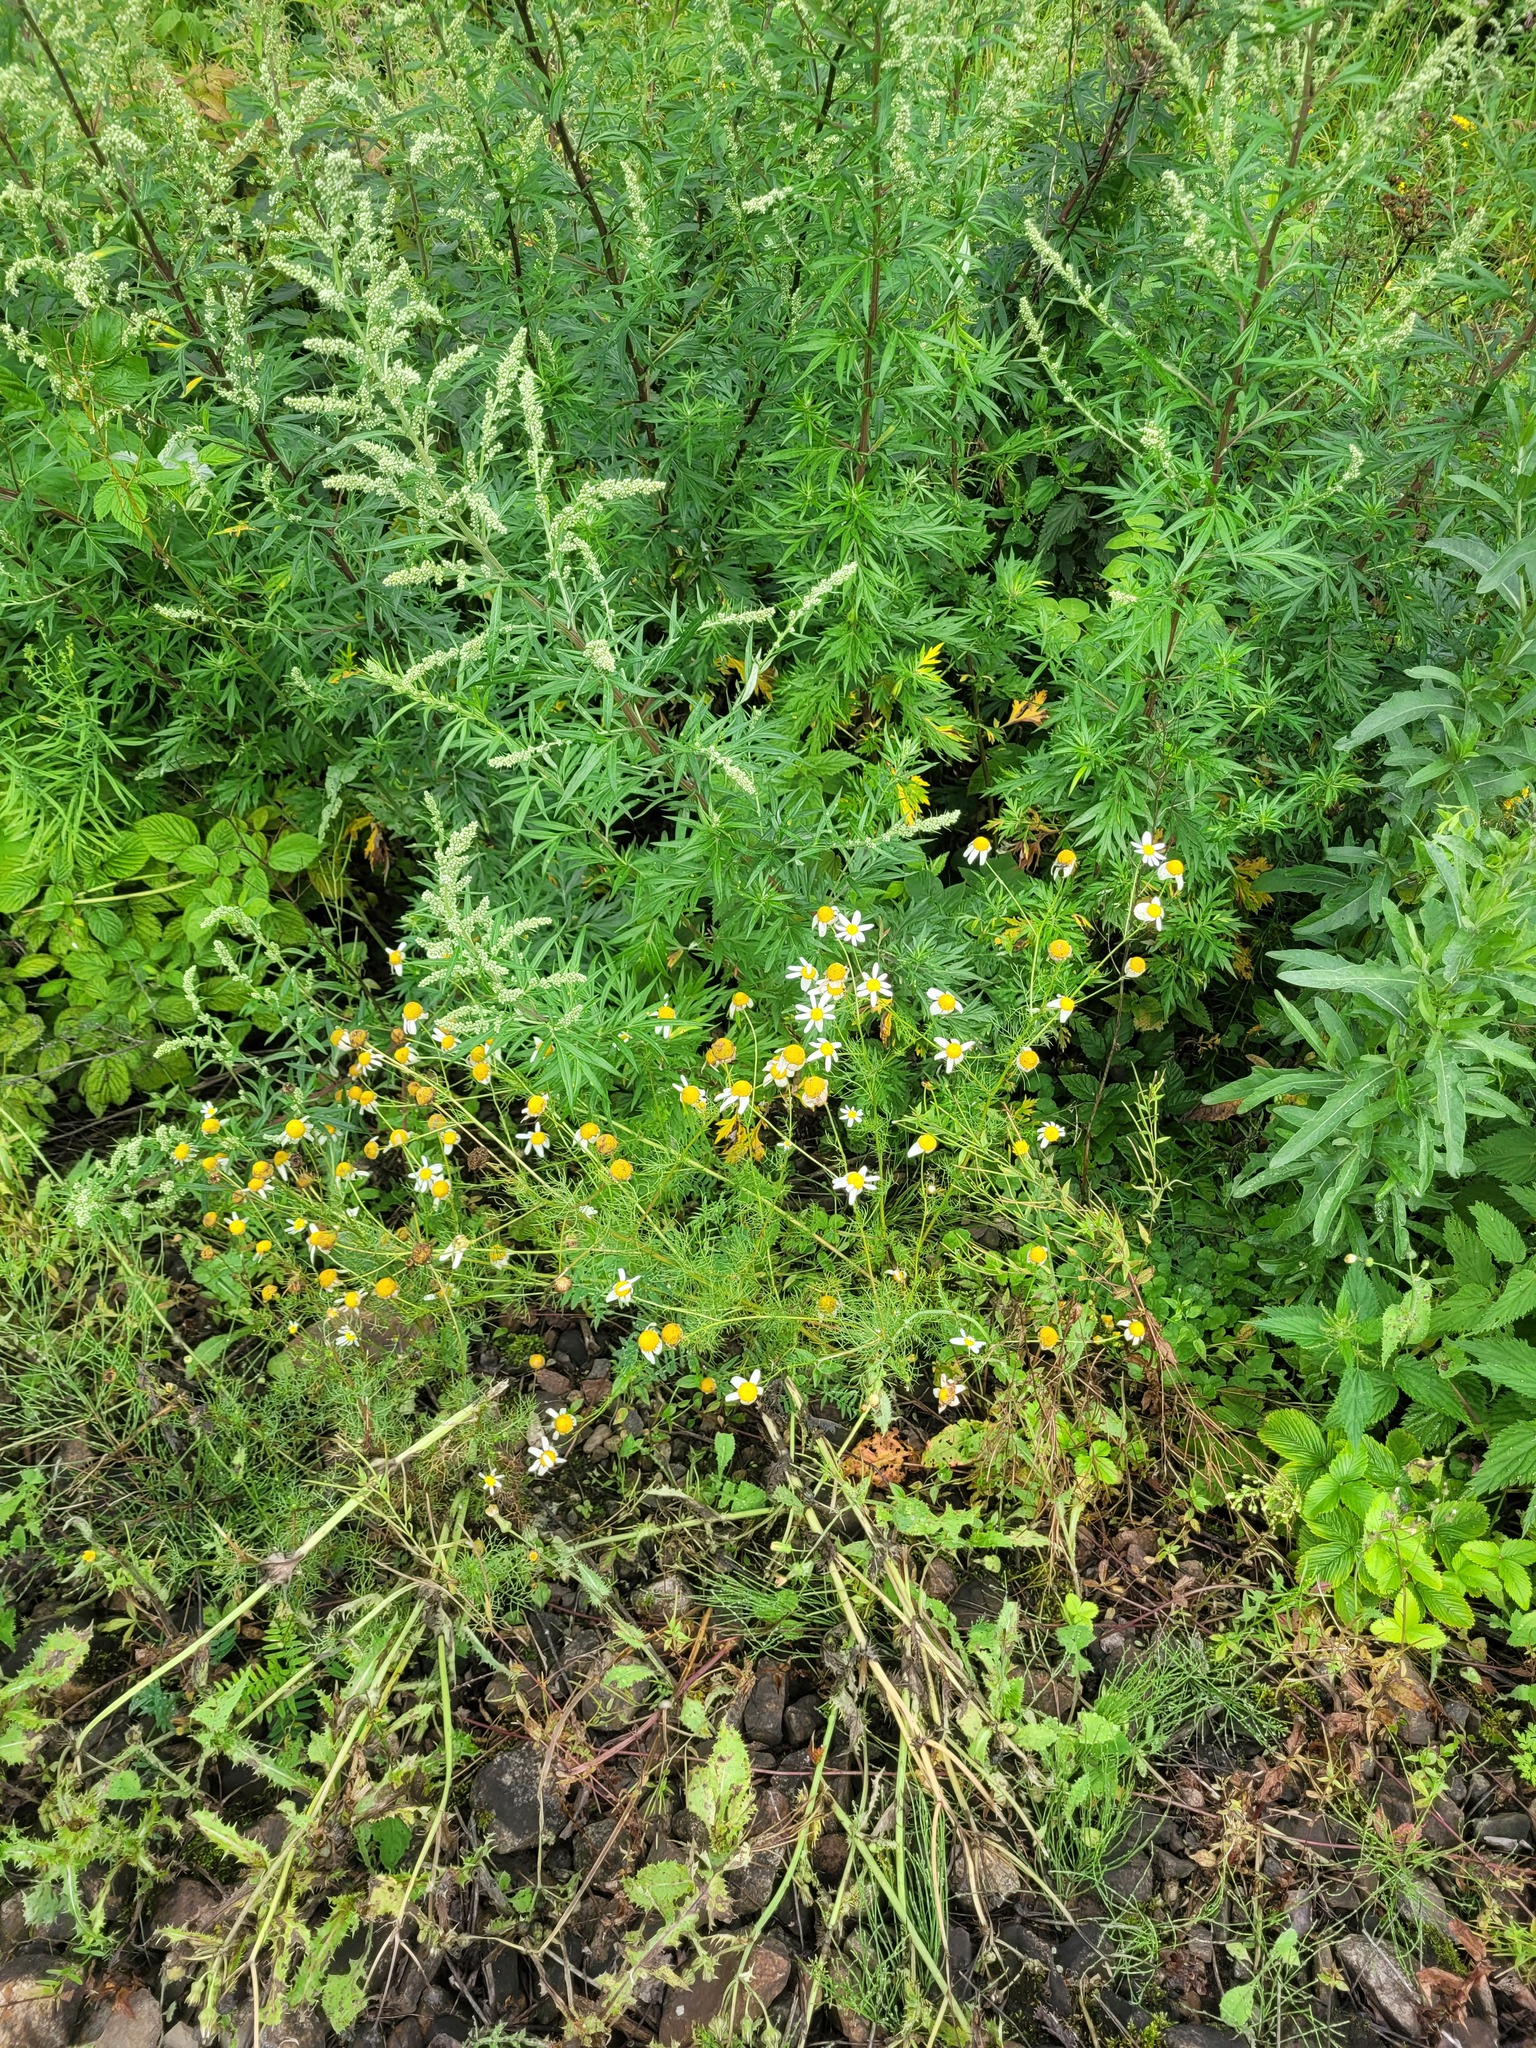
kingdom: Plantae
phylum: Tracheophyta
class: Magnoliopsida
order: Asterales
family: Asteraceae
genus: Tripleurospermum
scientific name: Tripleurospermum inodorum
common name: Scentless mayweed
